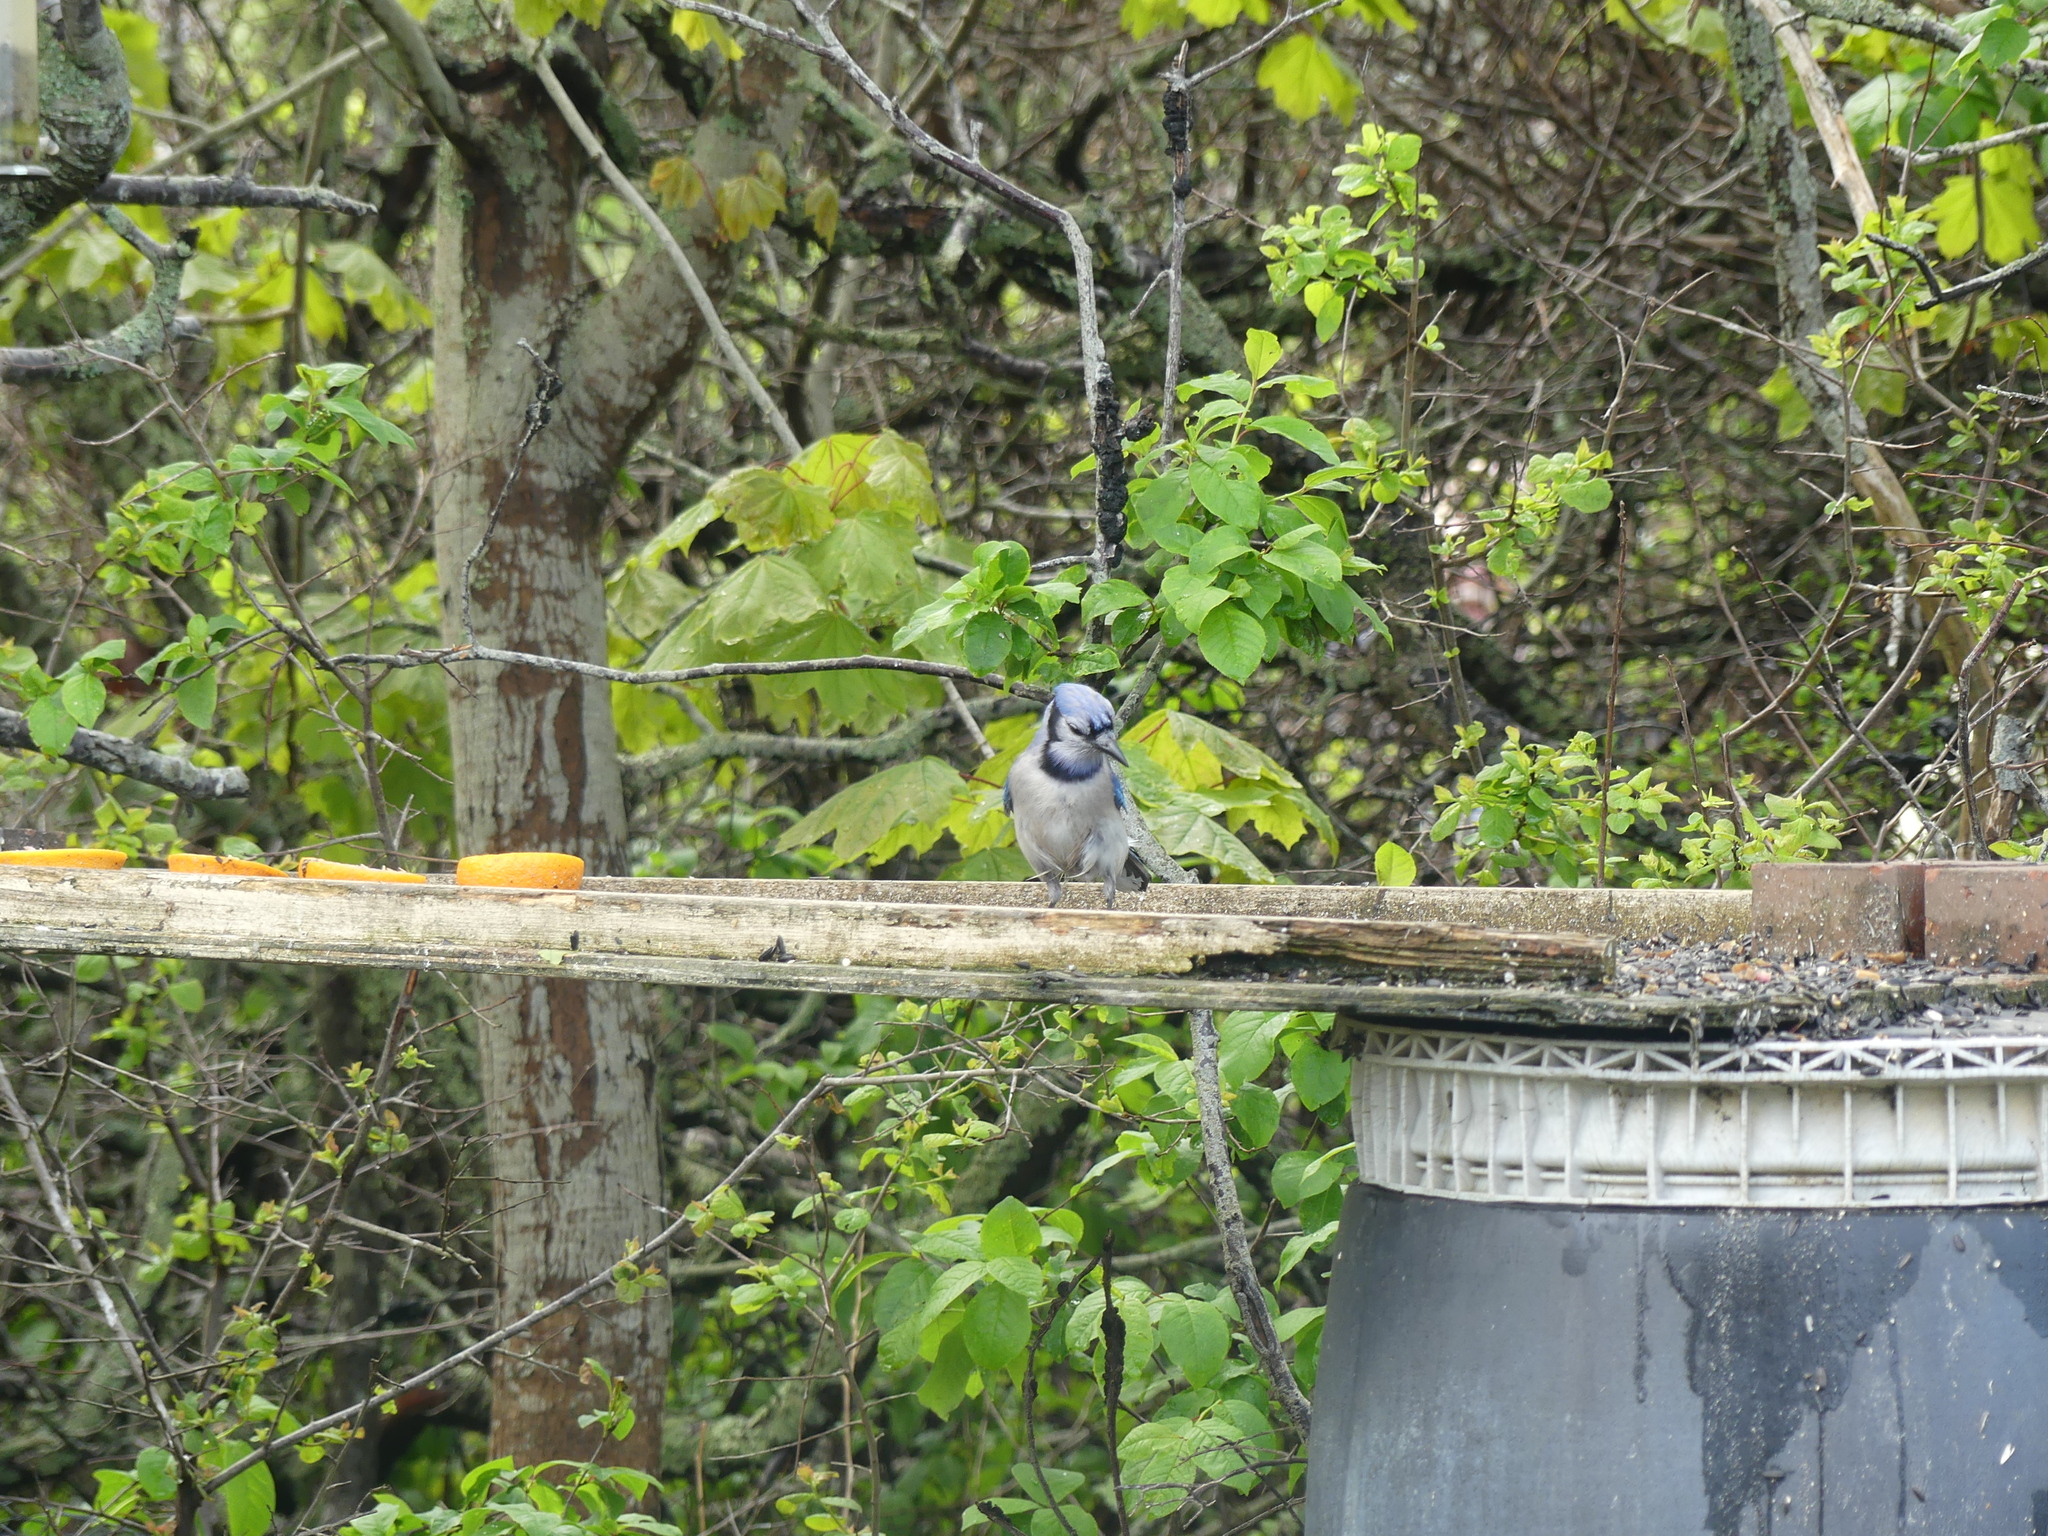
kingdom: Animalia
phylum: Chordata
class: Aves
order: Passeriformes
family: Corvidae
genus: Cyanocitta
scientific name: Cyanocitta cristata
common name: Blue jay
